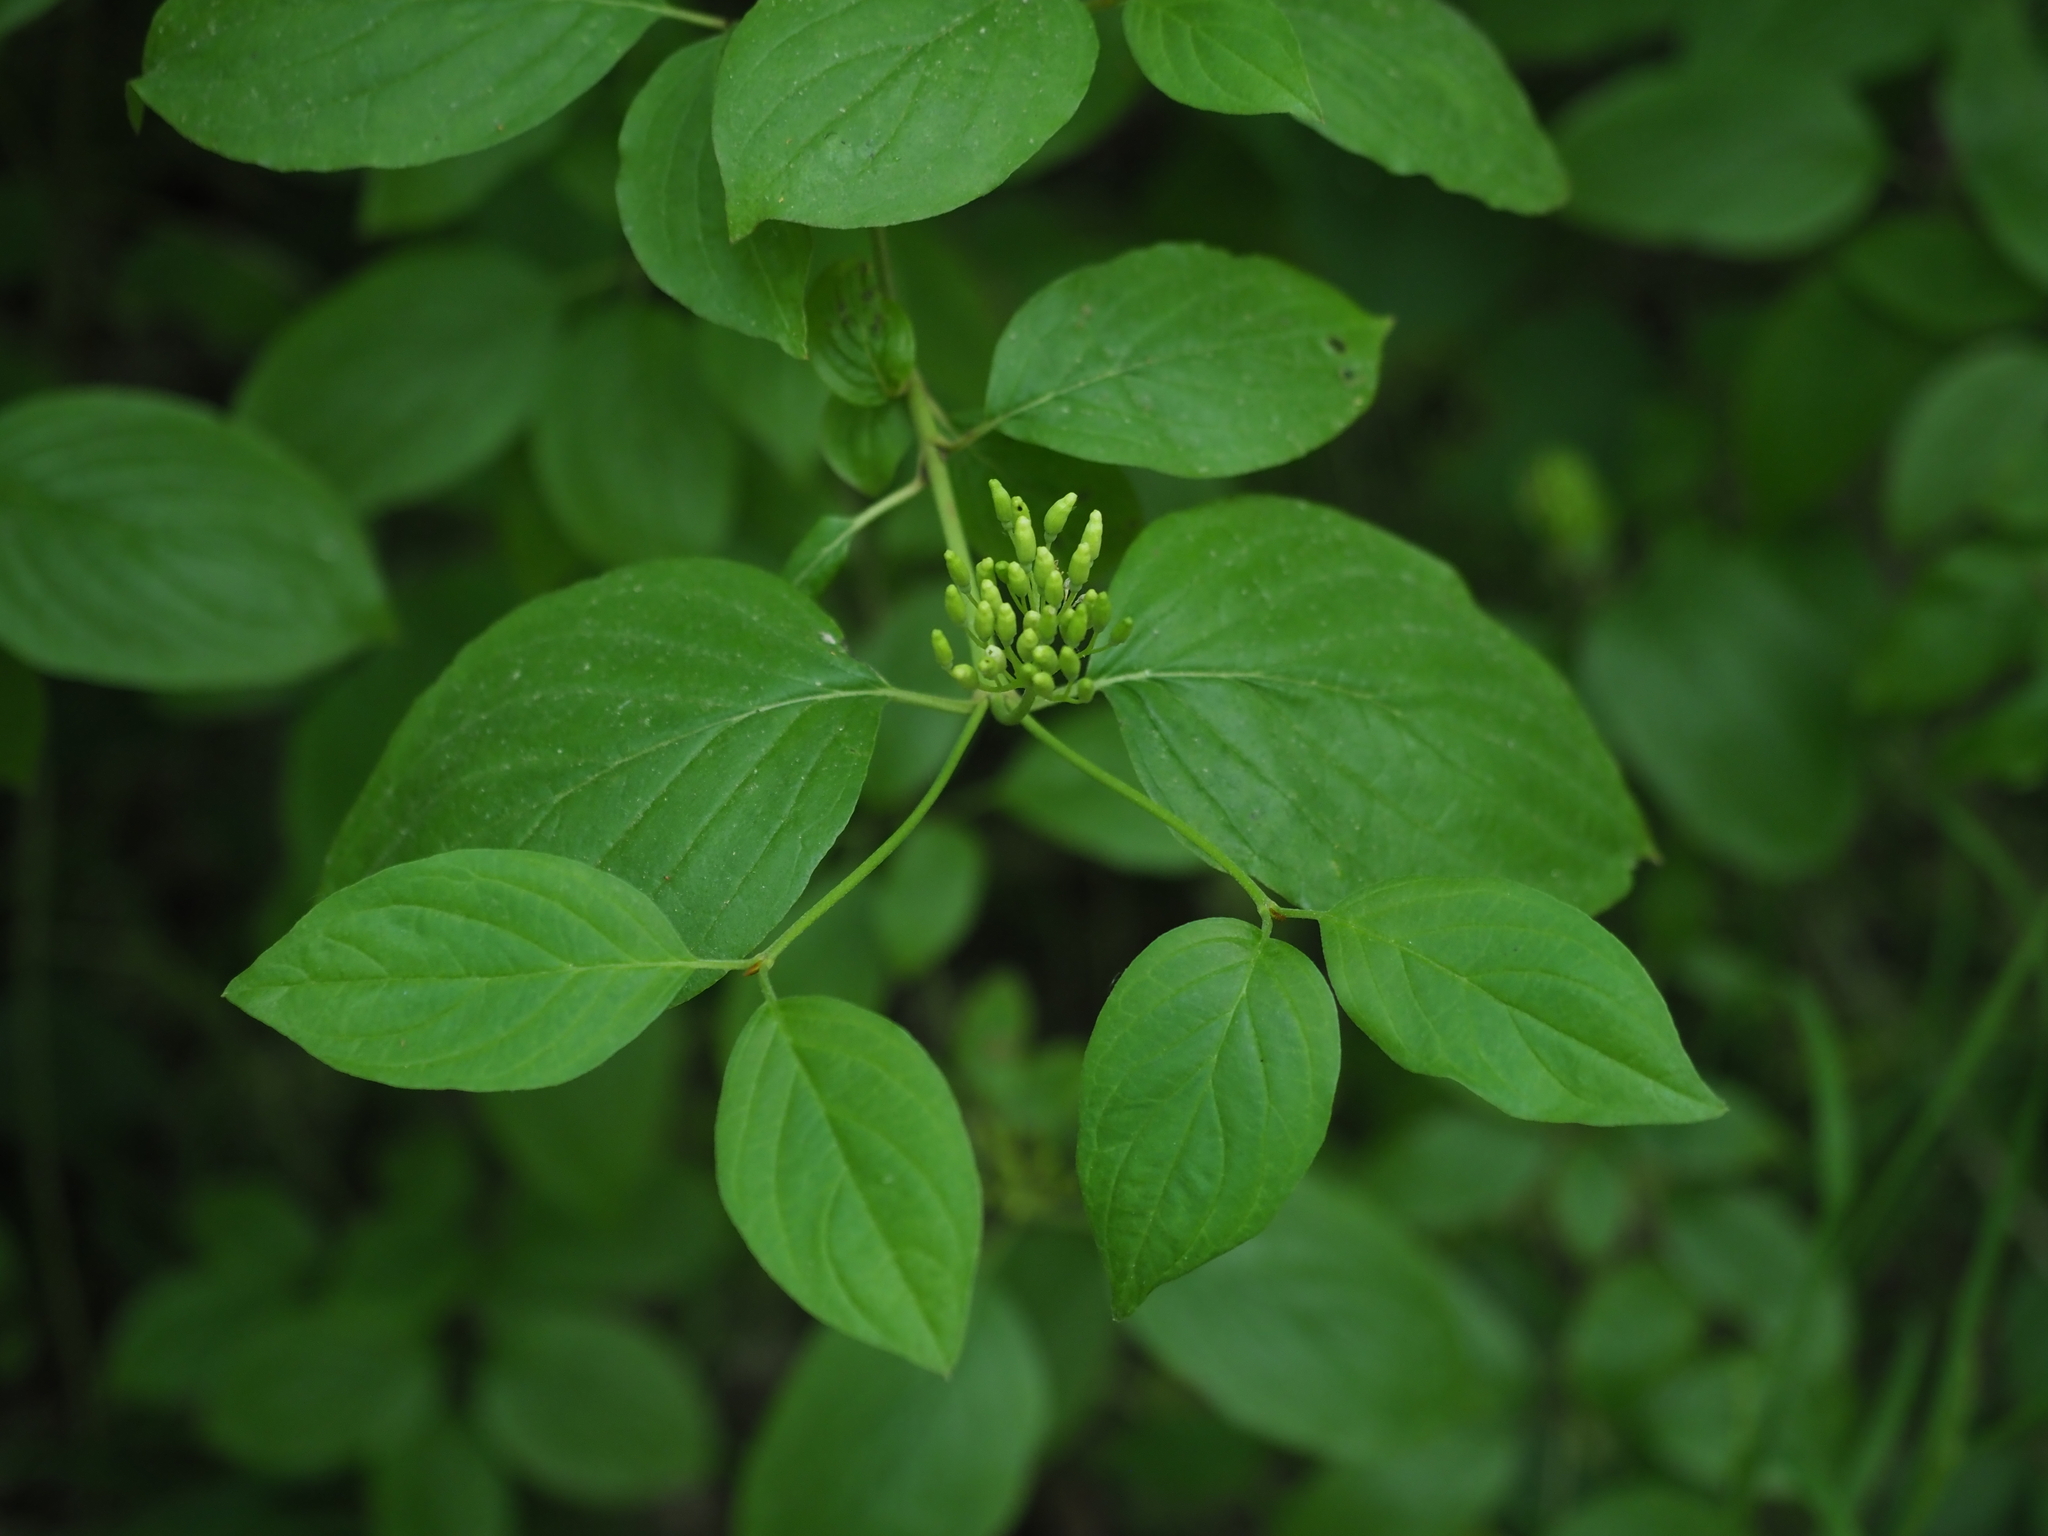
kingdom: Plantae
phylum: Tracheophyta
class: Magnoliopsida
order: Cornales
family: Cornaceae
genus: Cornus
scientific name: Cornus sanguinea
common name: Dogwood
